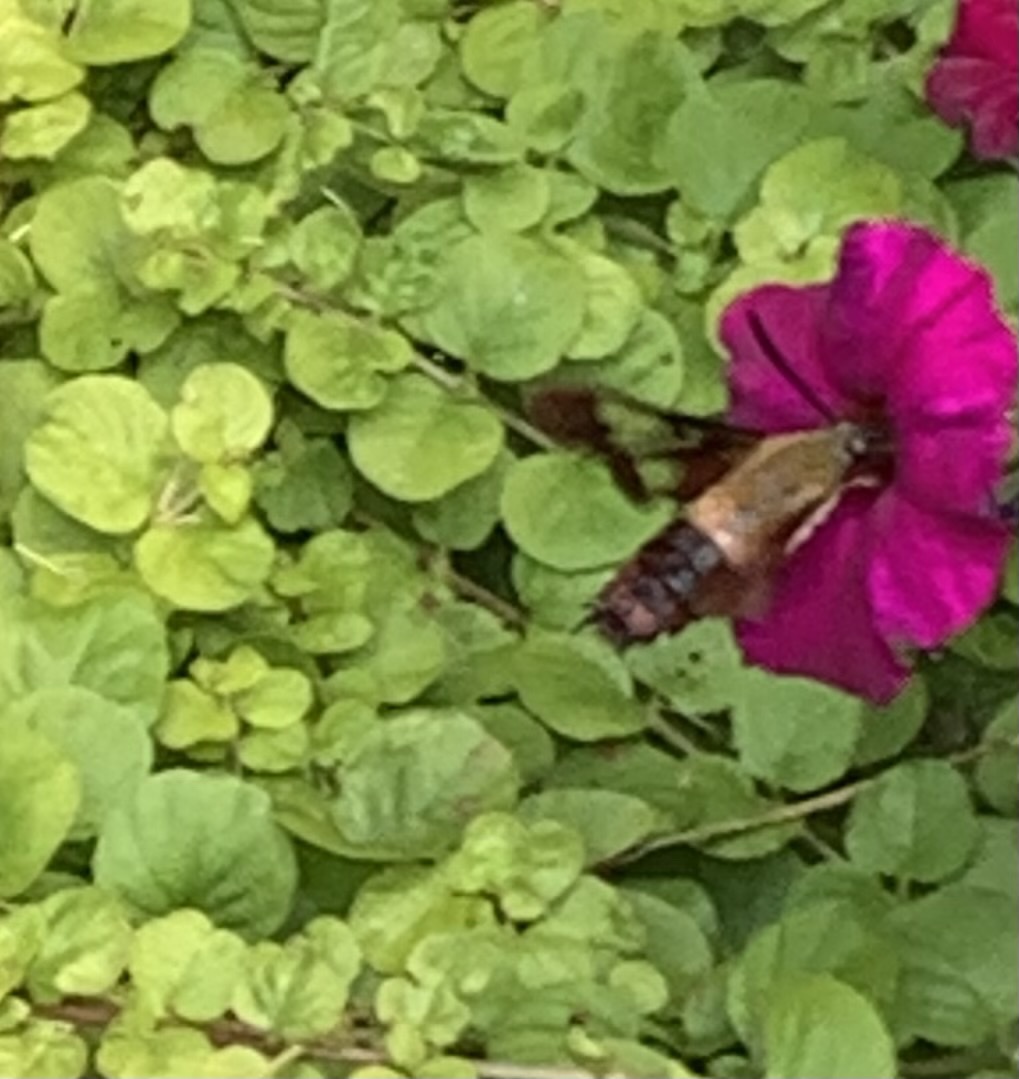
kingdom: Animalia
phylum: Arthropoda
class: Insecta
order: Lepidoptera
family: Sphingidae
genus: Hemaris
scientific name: Hemaris thysbe
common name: Common clear-wing
